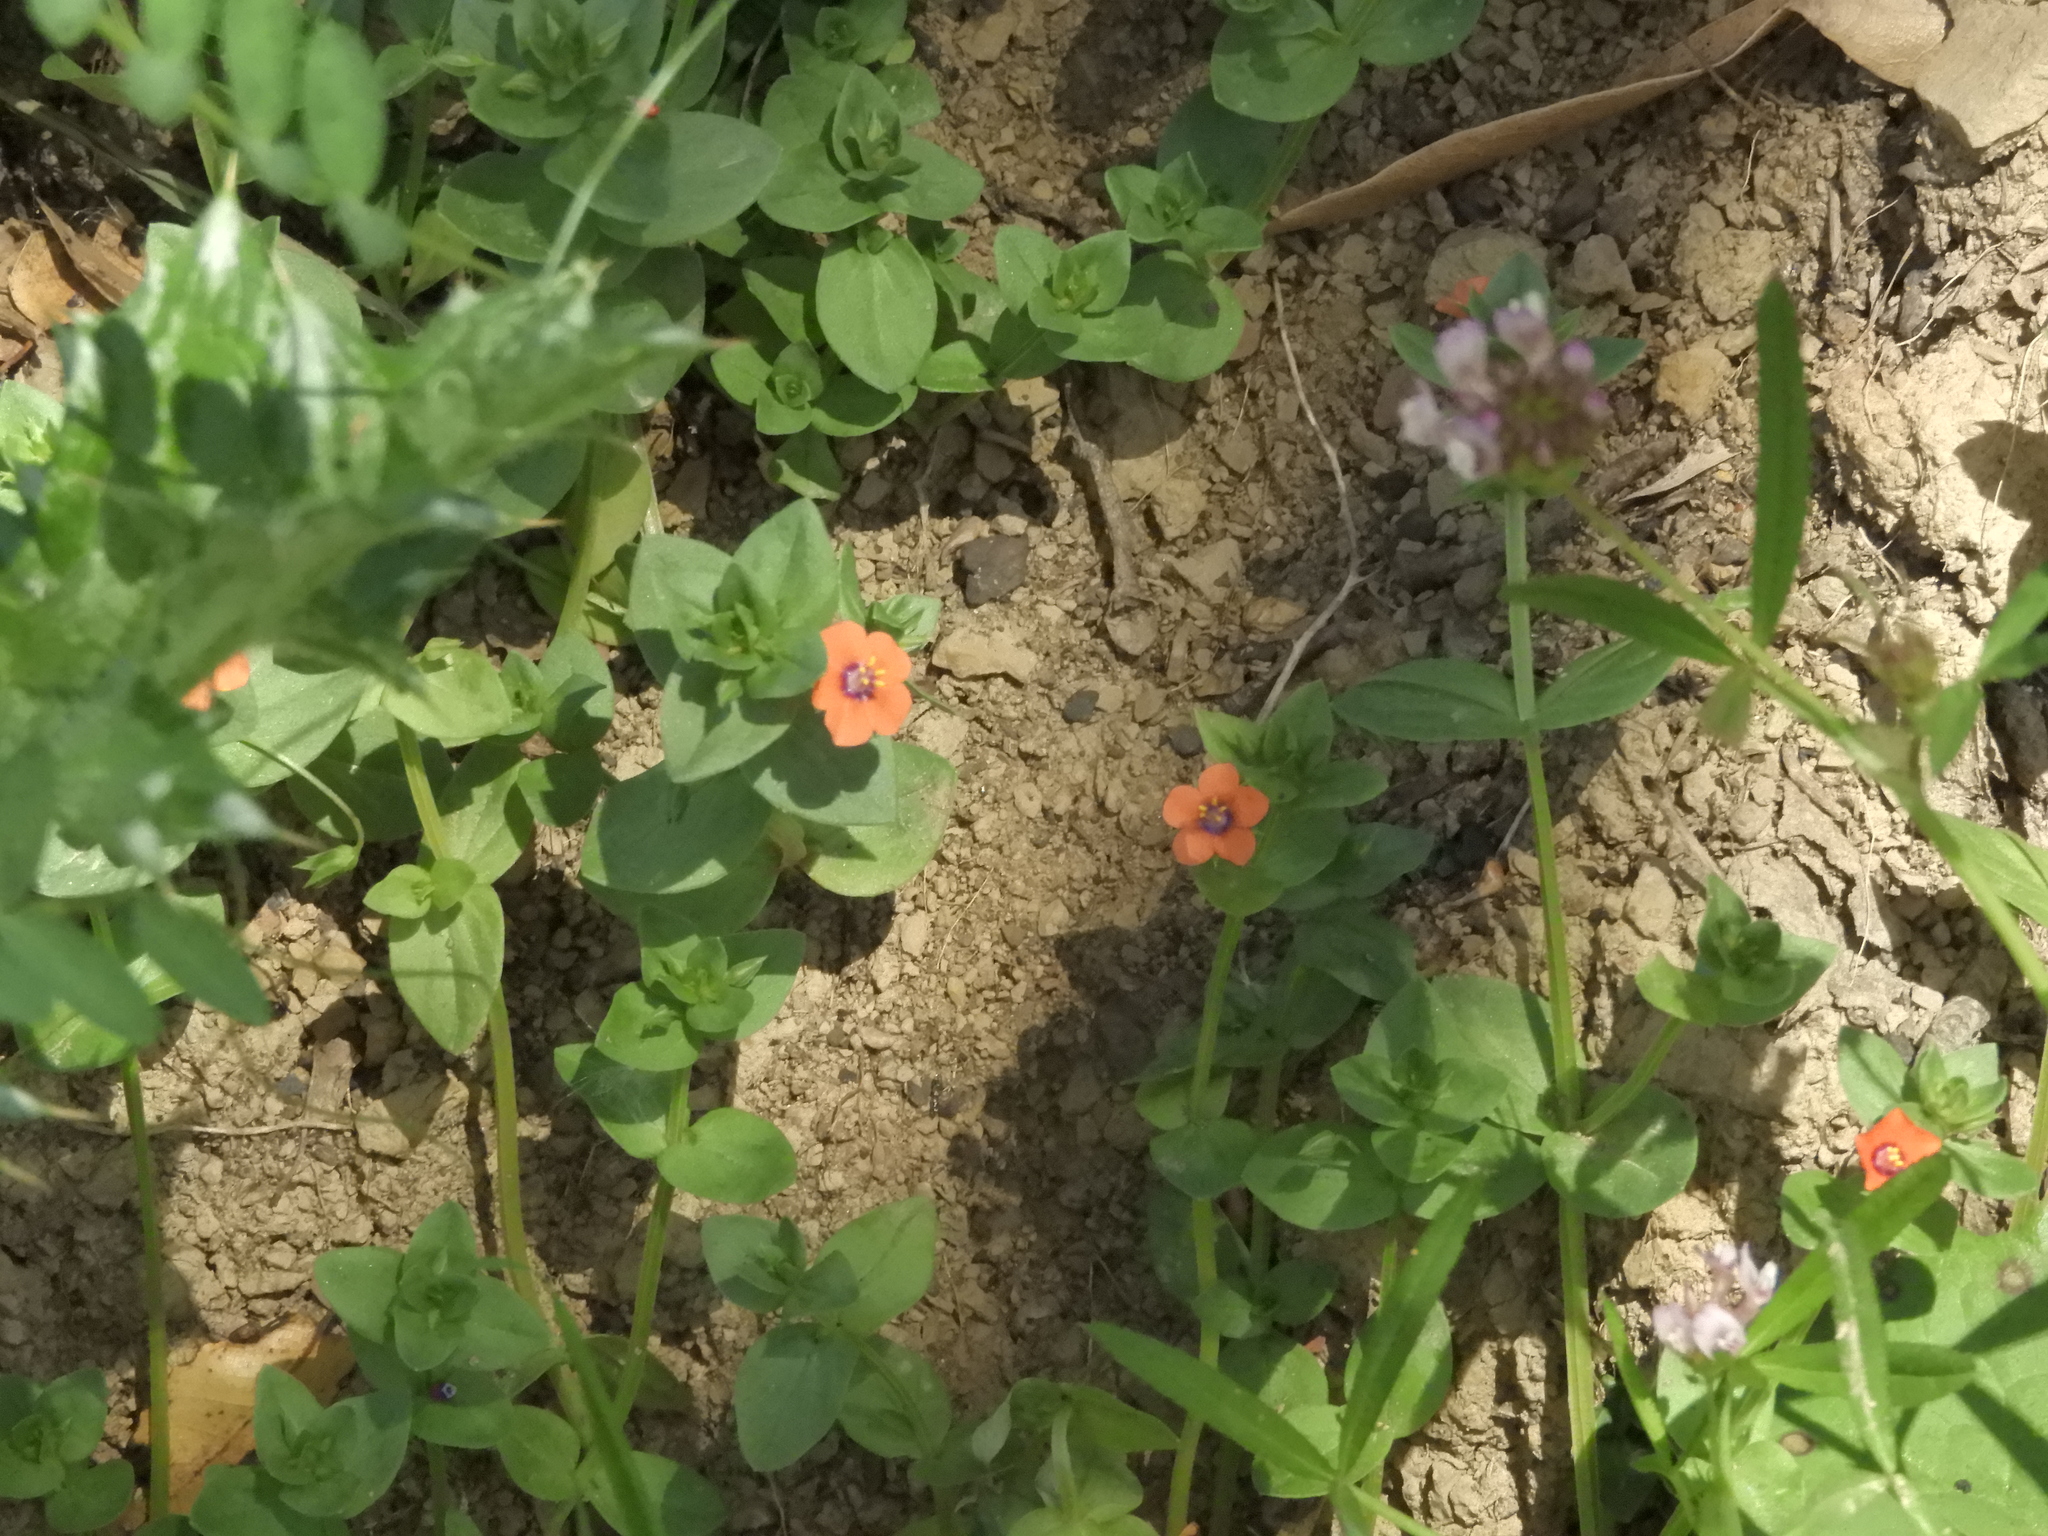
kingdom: Plantae
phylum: Tracheophyta
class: Magnoliopsida
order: Ericales
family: Primulaceae
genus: Lysimachia
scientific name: Lysimachia arvensis
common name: Scarlet pimpernel
